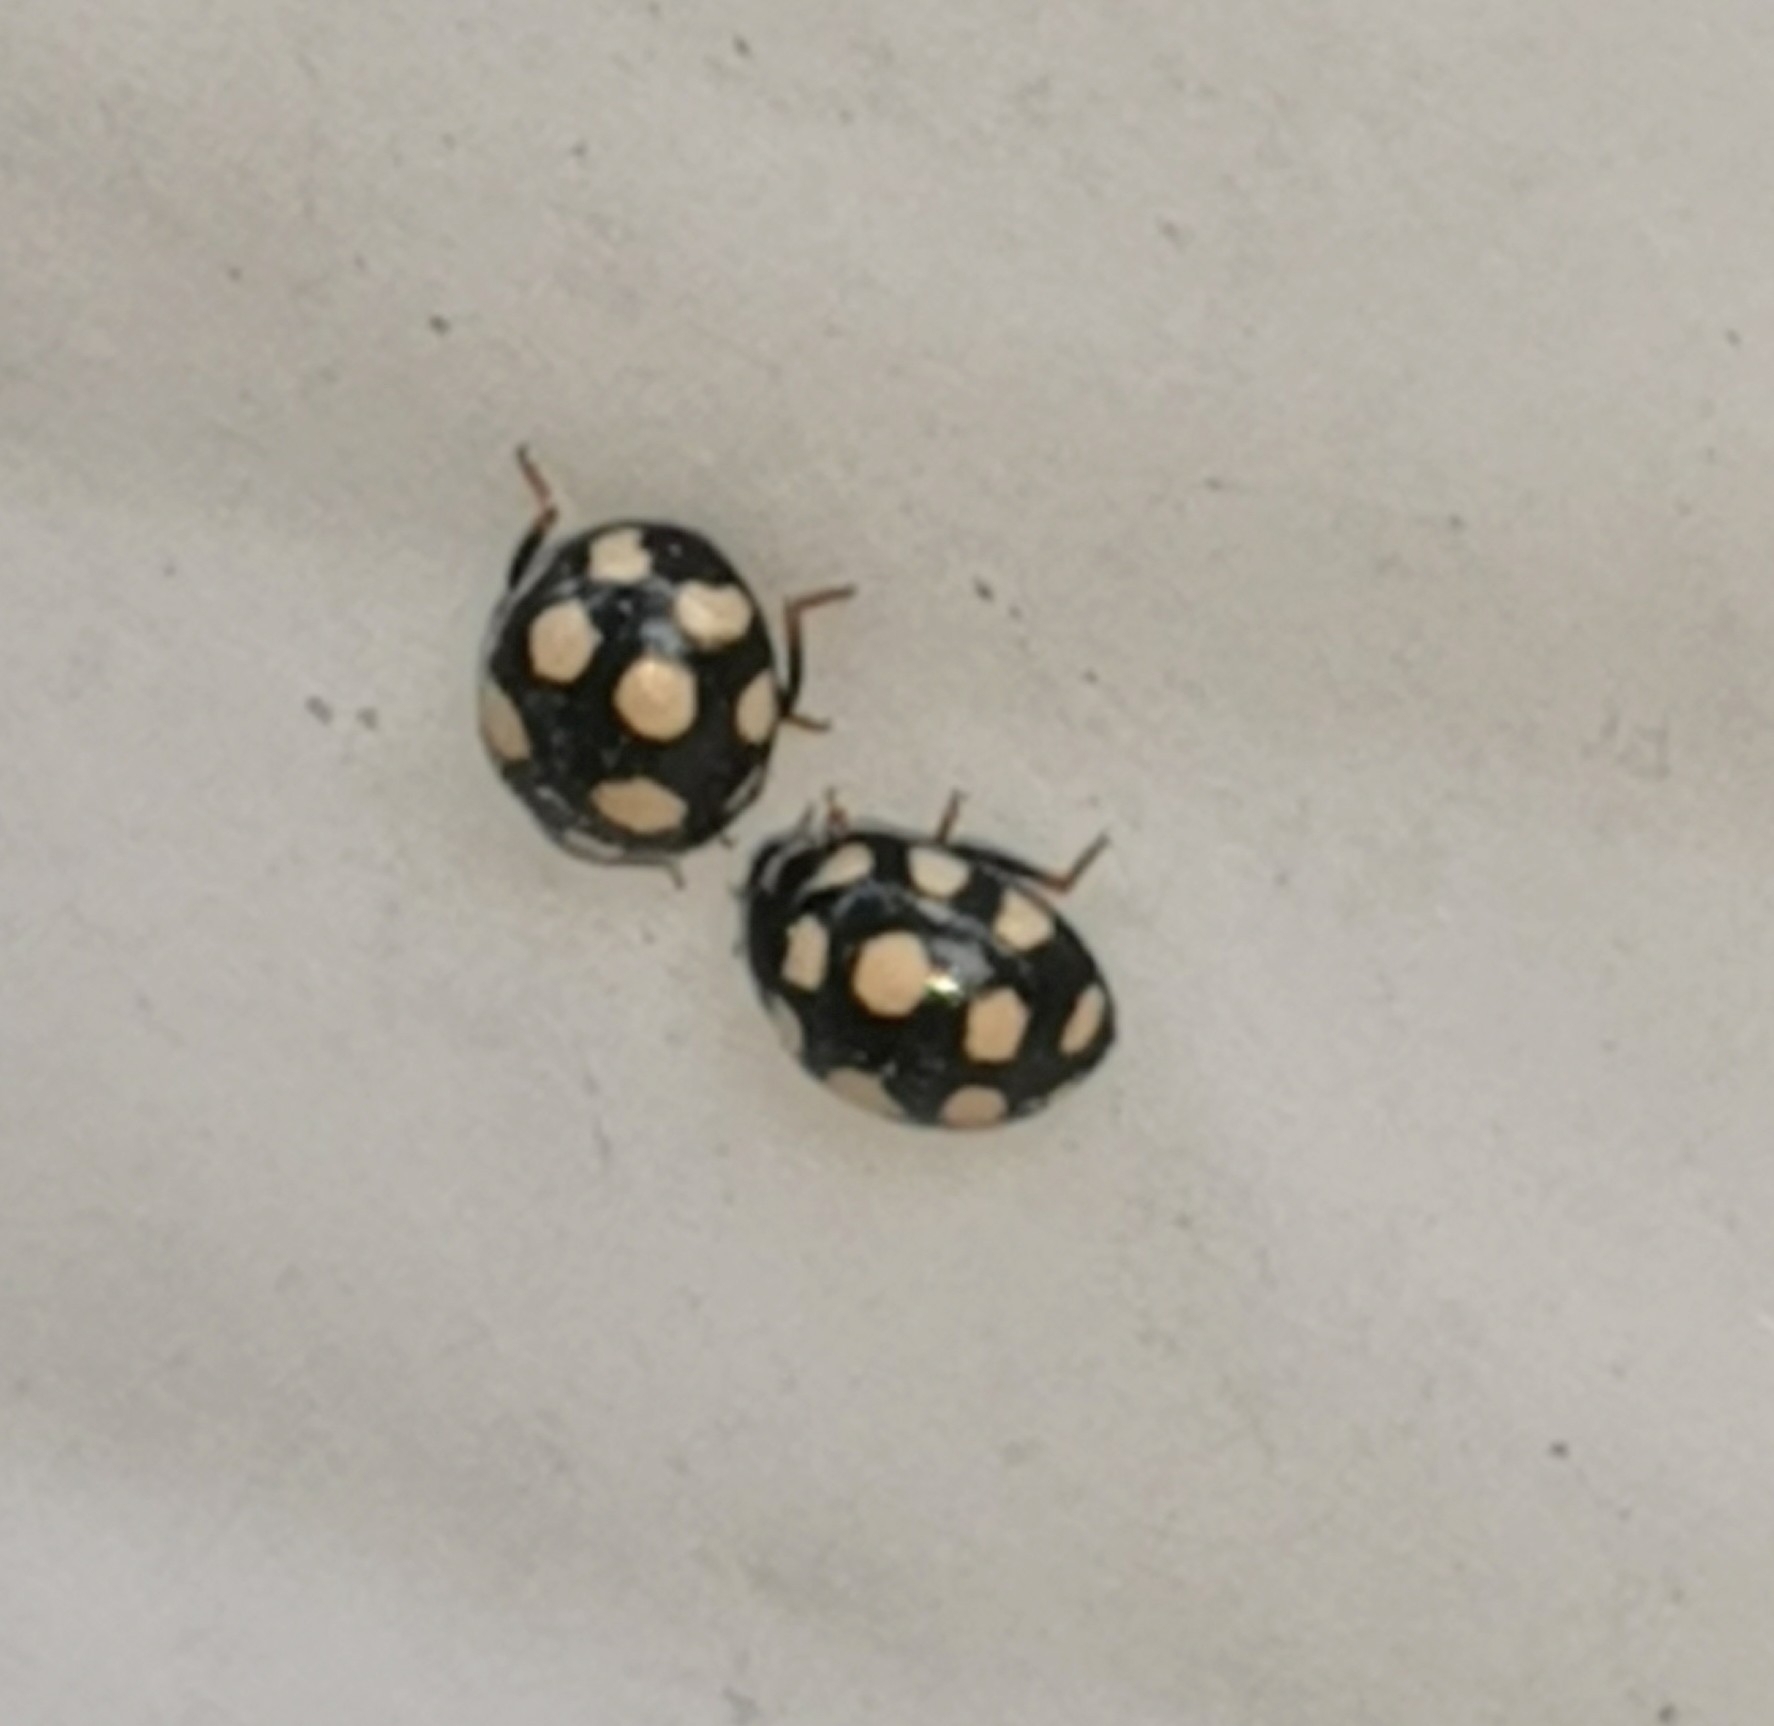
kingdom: Animalia
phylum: Arthropoda
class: Insecta
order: Coleoptera
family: Coccinellidae
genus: Coccinula
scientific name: Coccinula quatuordecimpustulata
